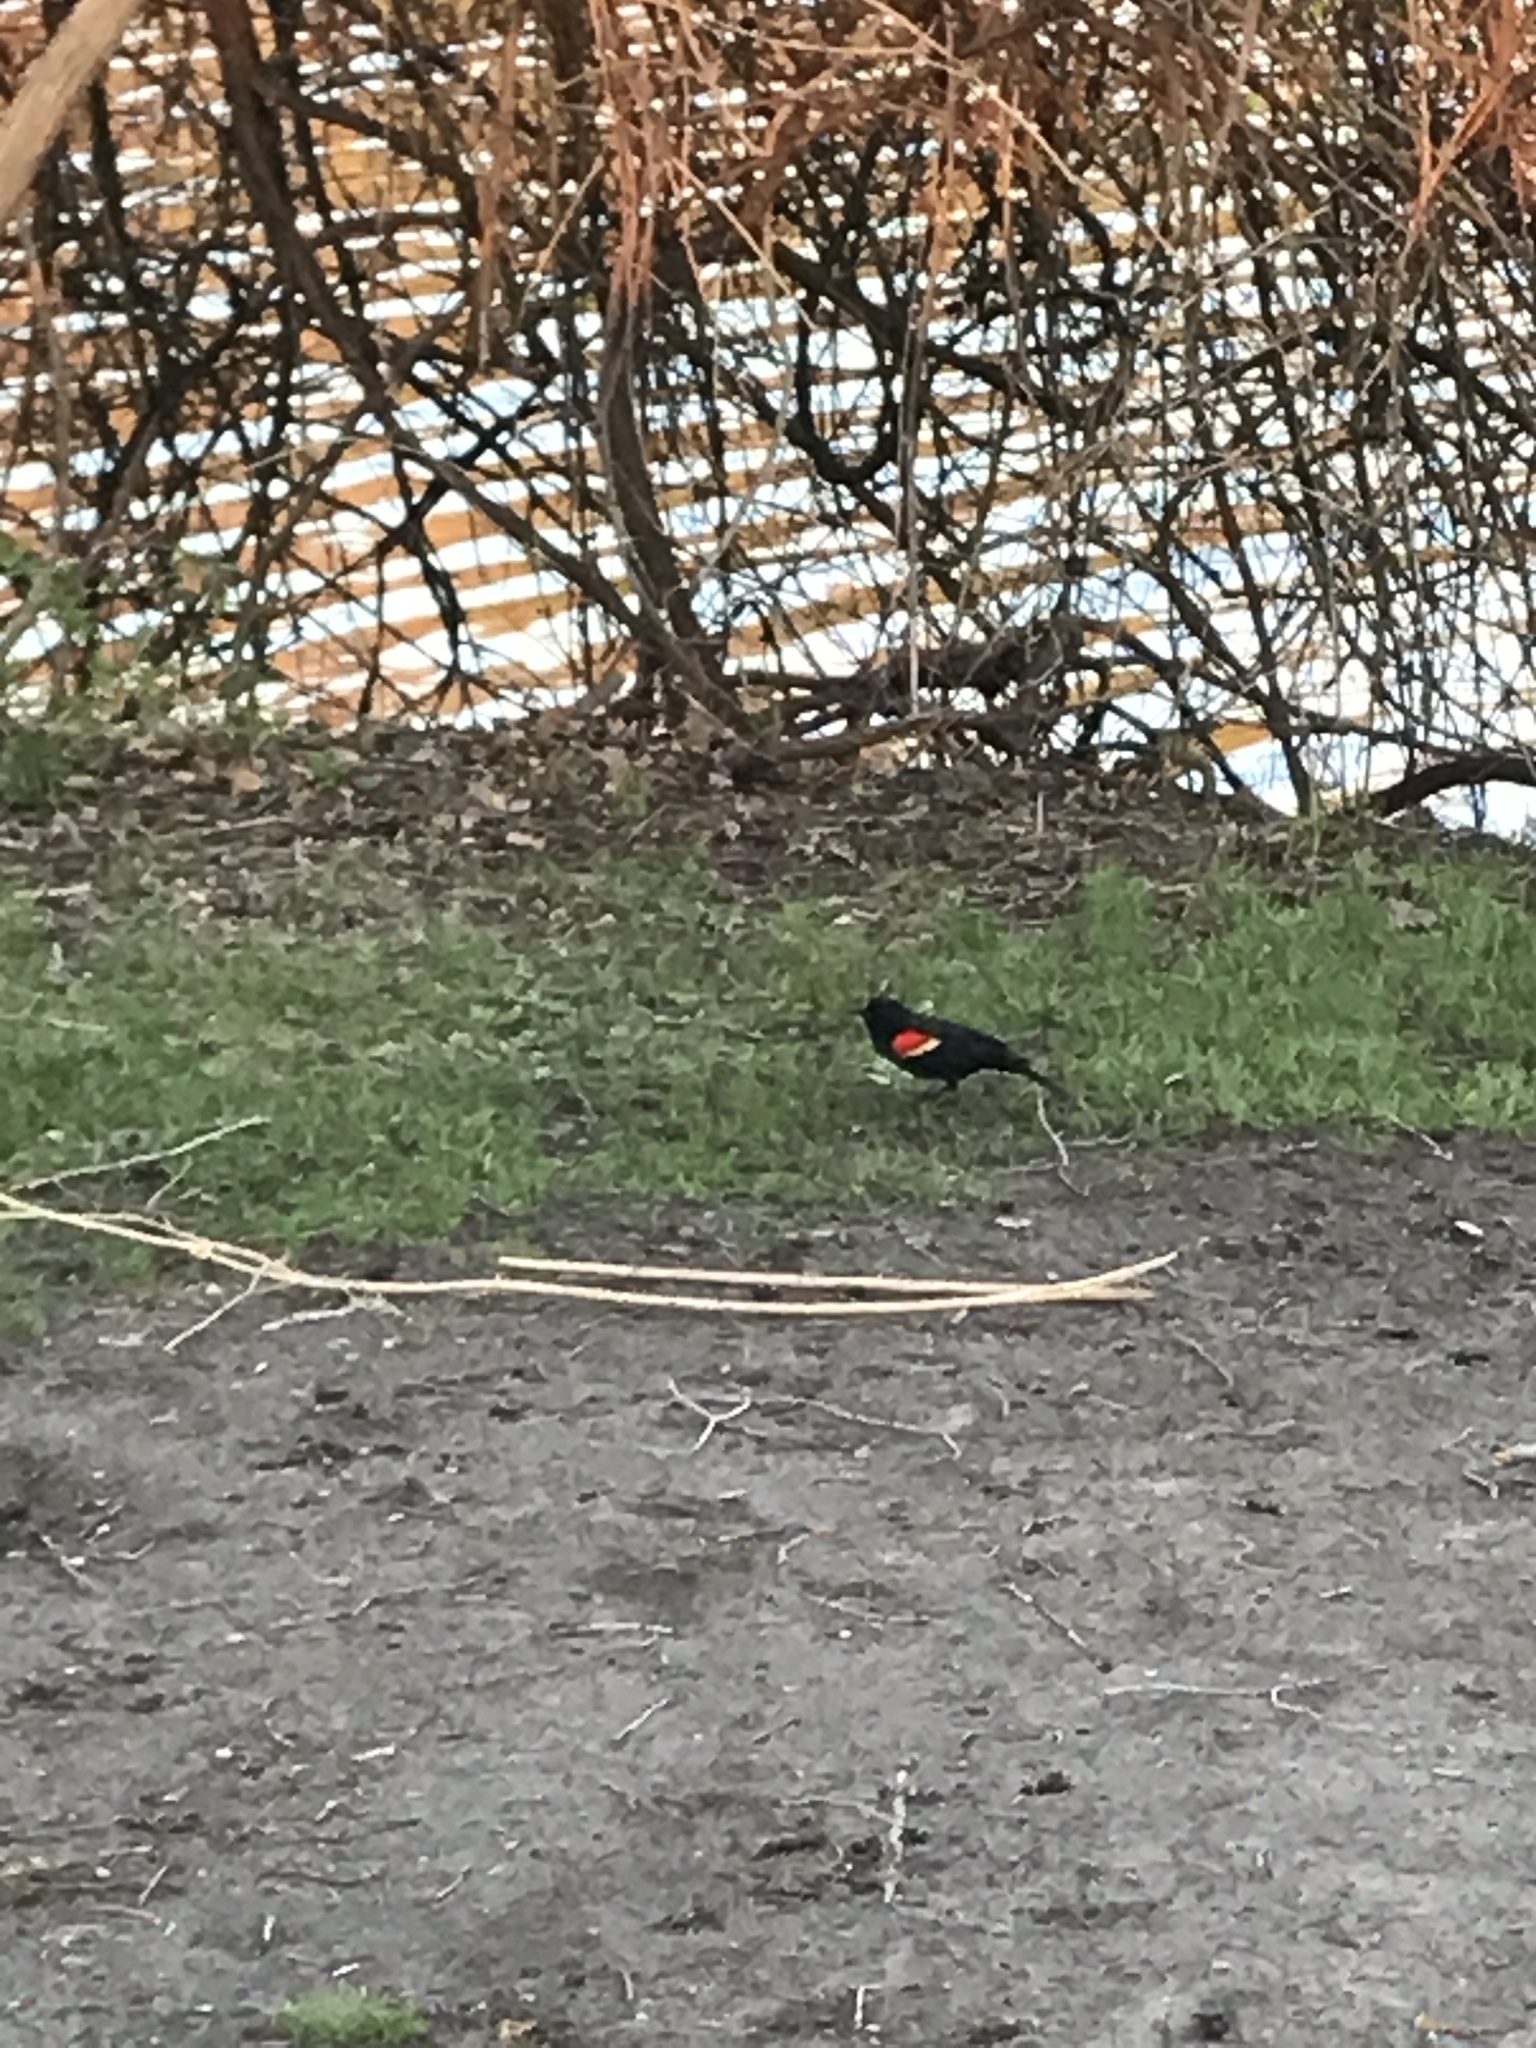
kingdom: Animalia
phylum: Chordata
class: Aves
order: Passeriformes
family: Icteridae
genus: Agelaius
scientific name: Agelaius phoeniceus
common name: Red-winged blackbird
